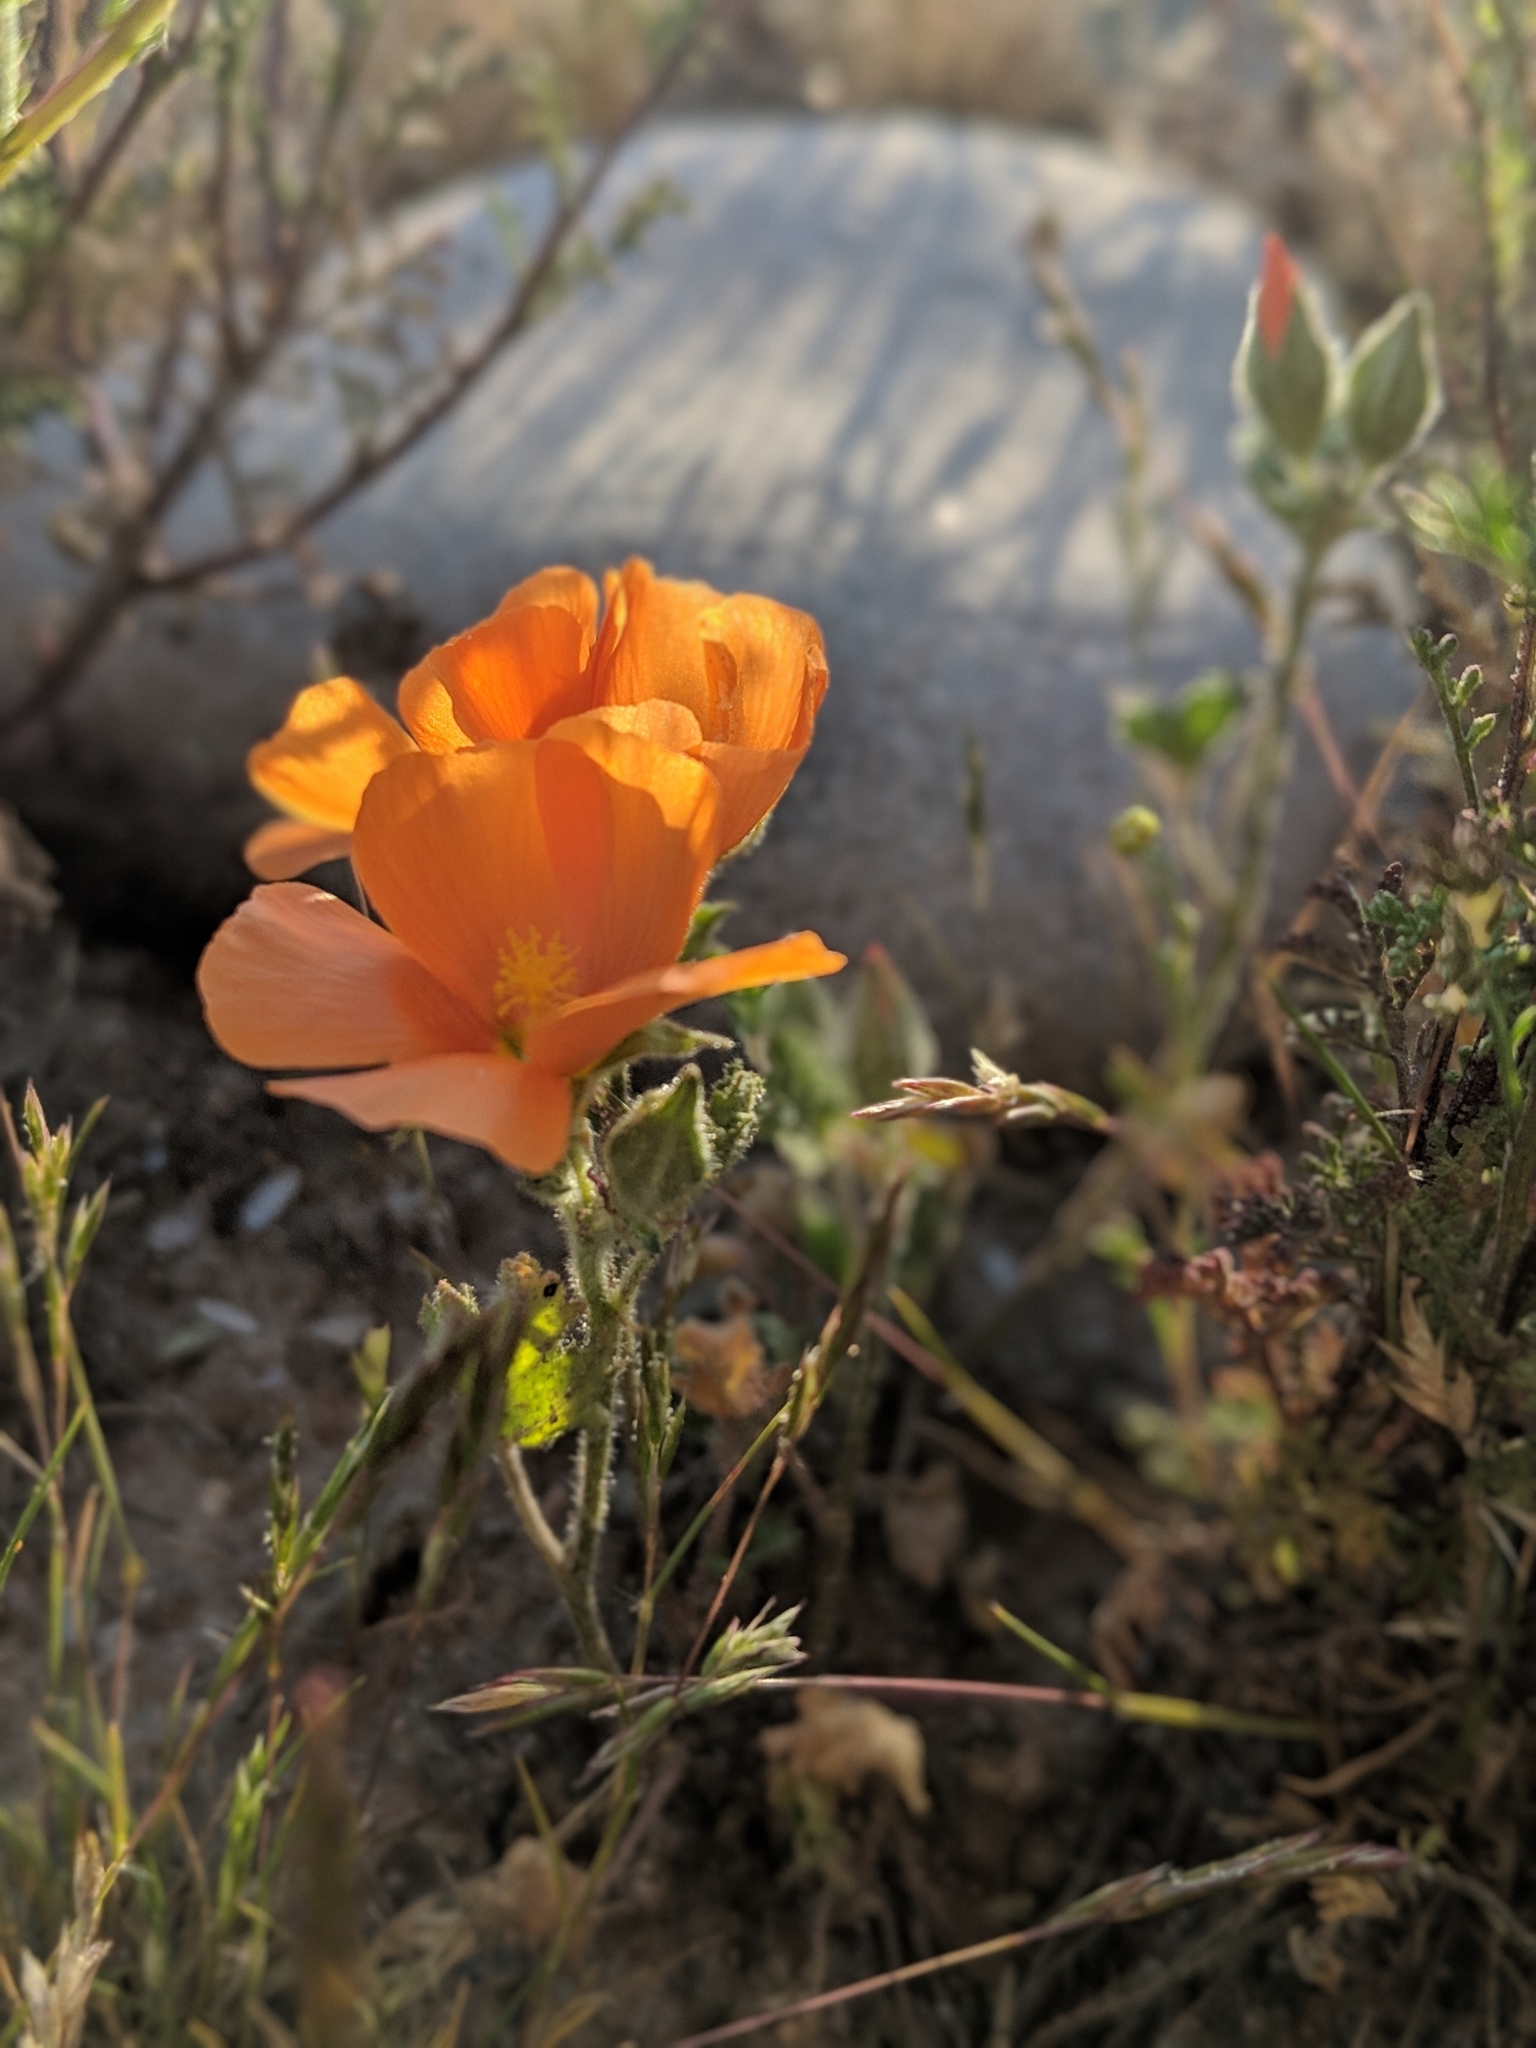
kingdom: Plantae
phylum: Tracheophyta
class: Magnoliopsida
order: Malvales
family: Malvaceae
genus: Sphaeralcea
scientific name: Sphaeralcea coulteri
